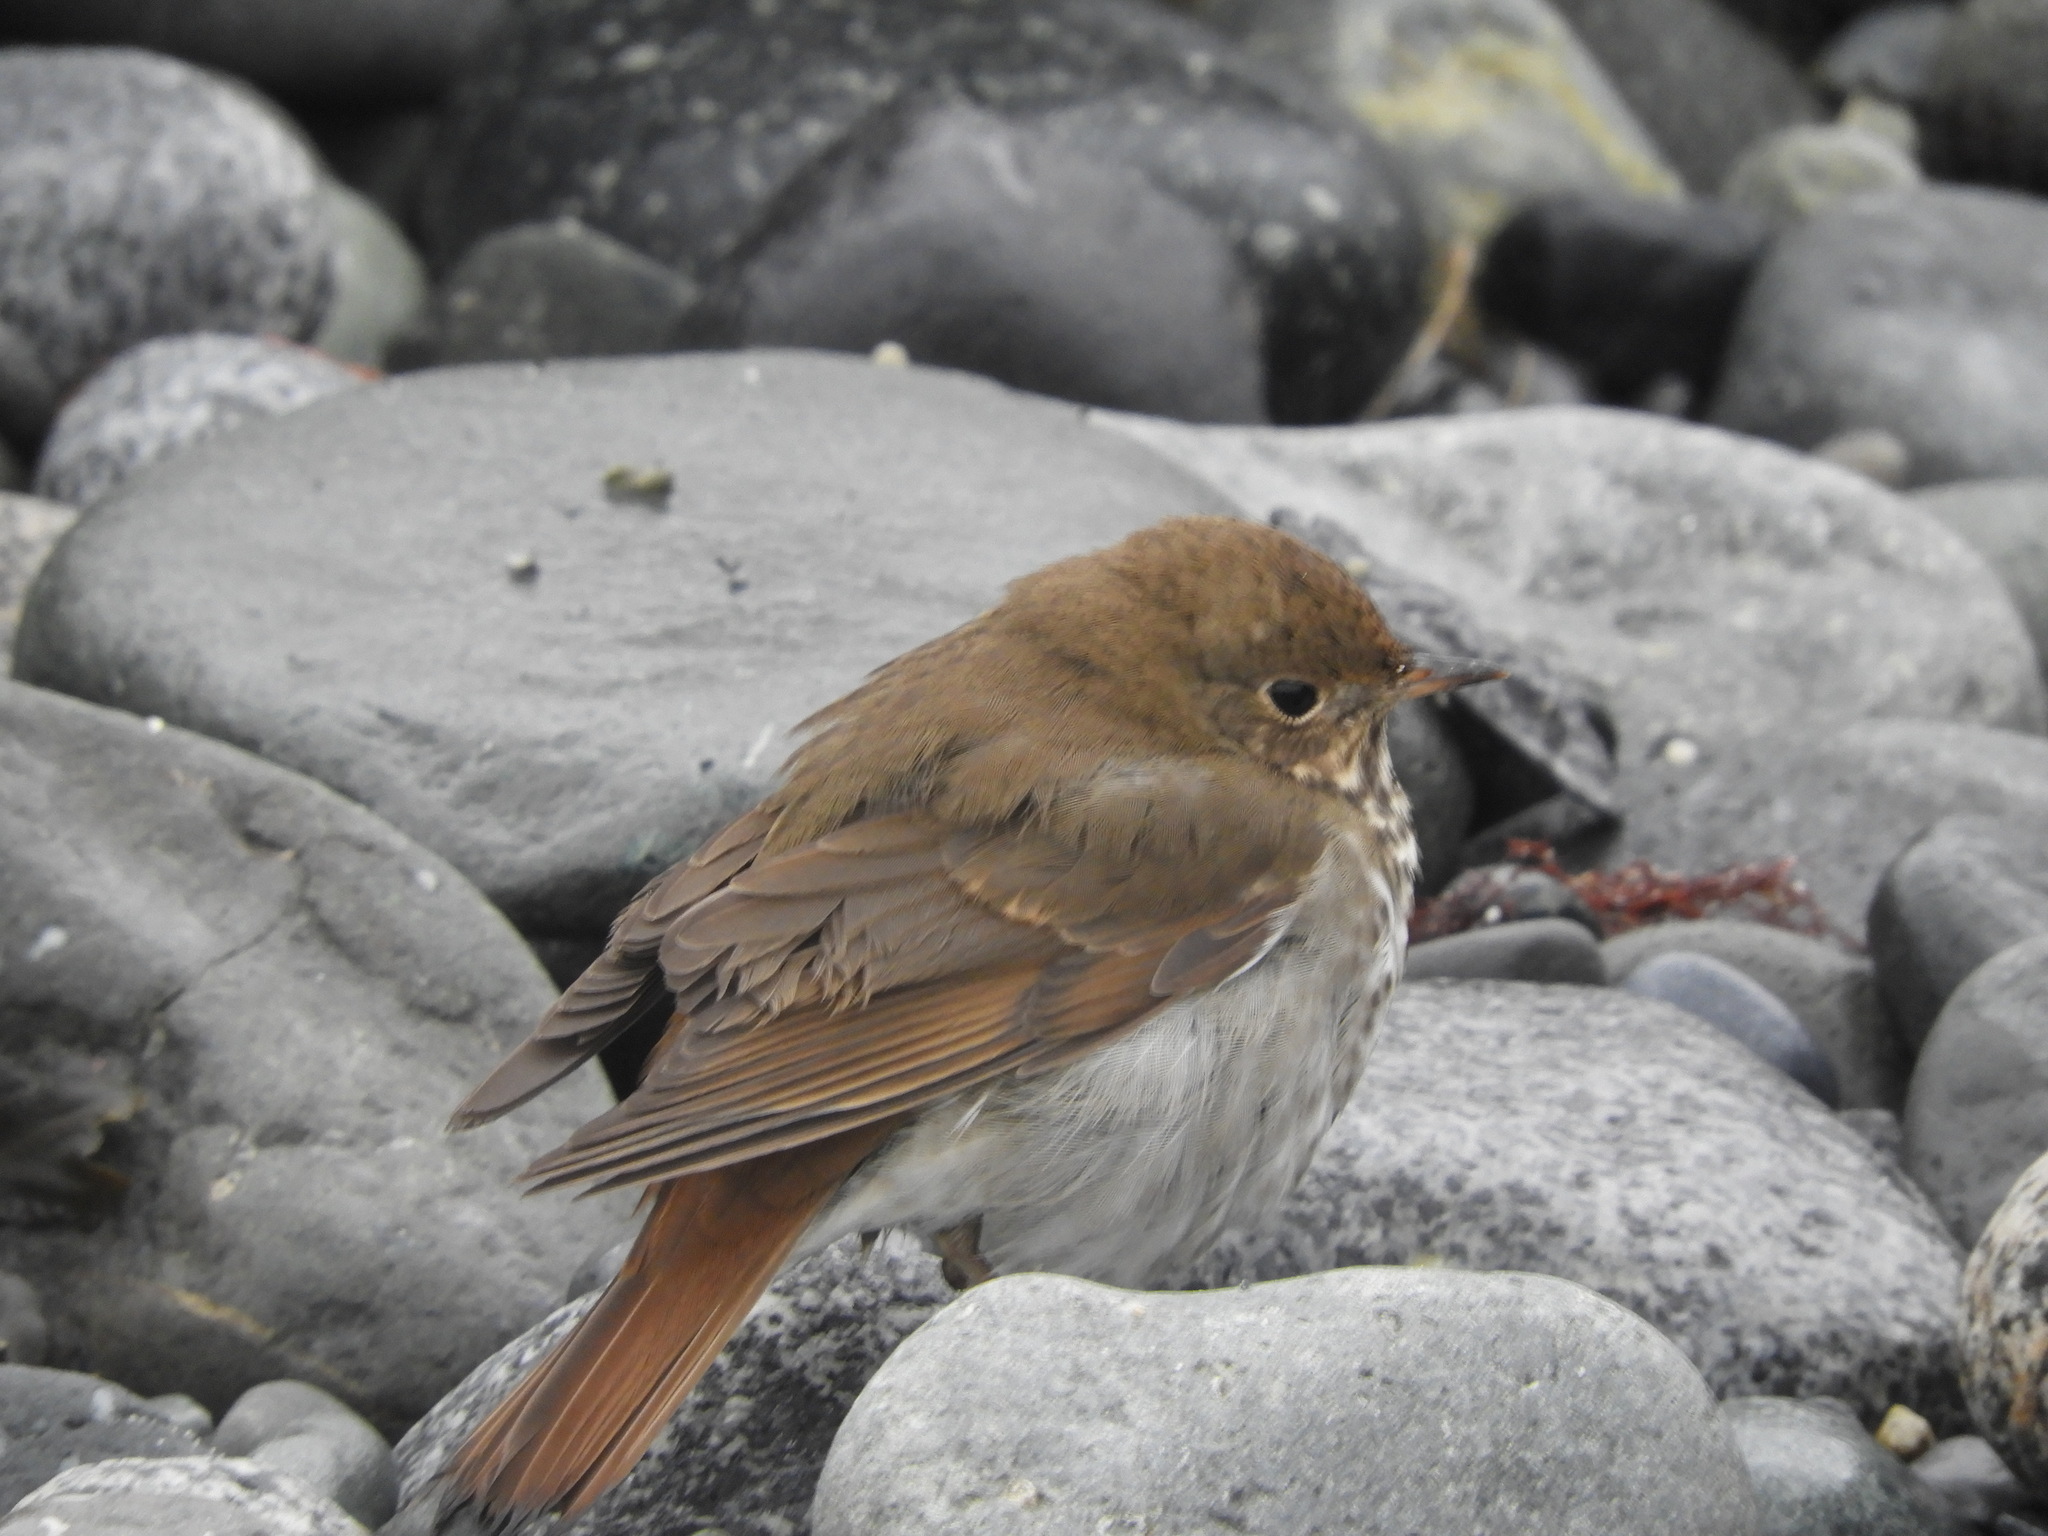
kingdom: Animalia
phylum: Chordata
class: Aves
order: Passeriformes
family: Turdidae
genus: Catharus
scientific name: Catharus guttatus
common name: Hermit thrush
